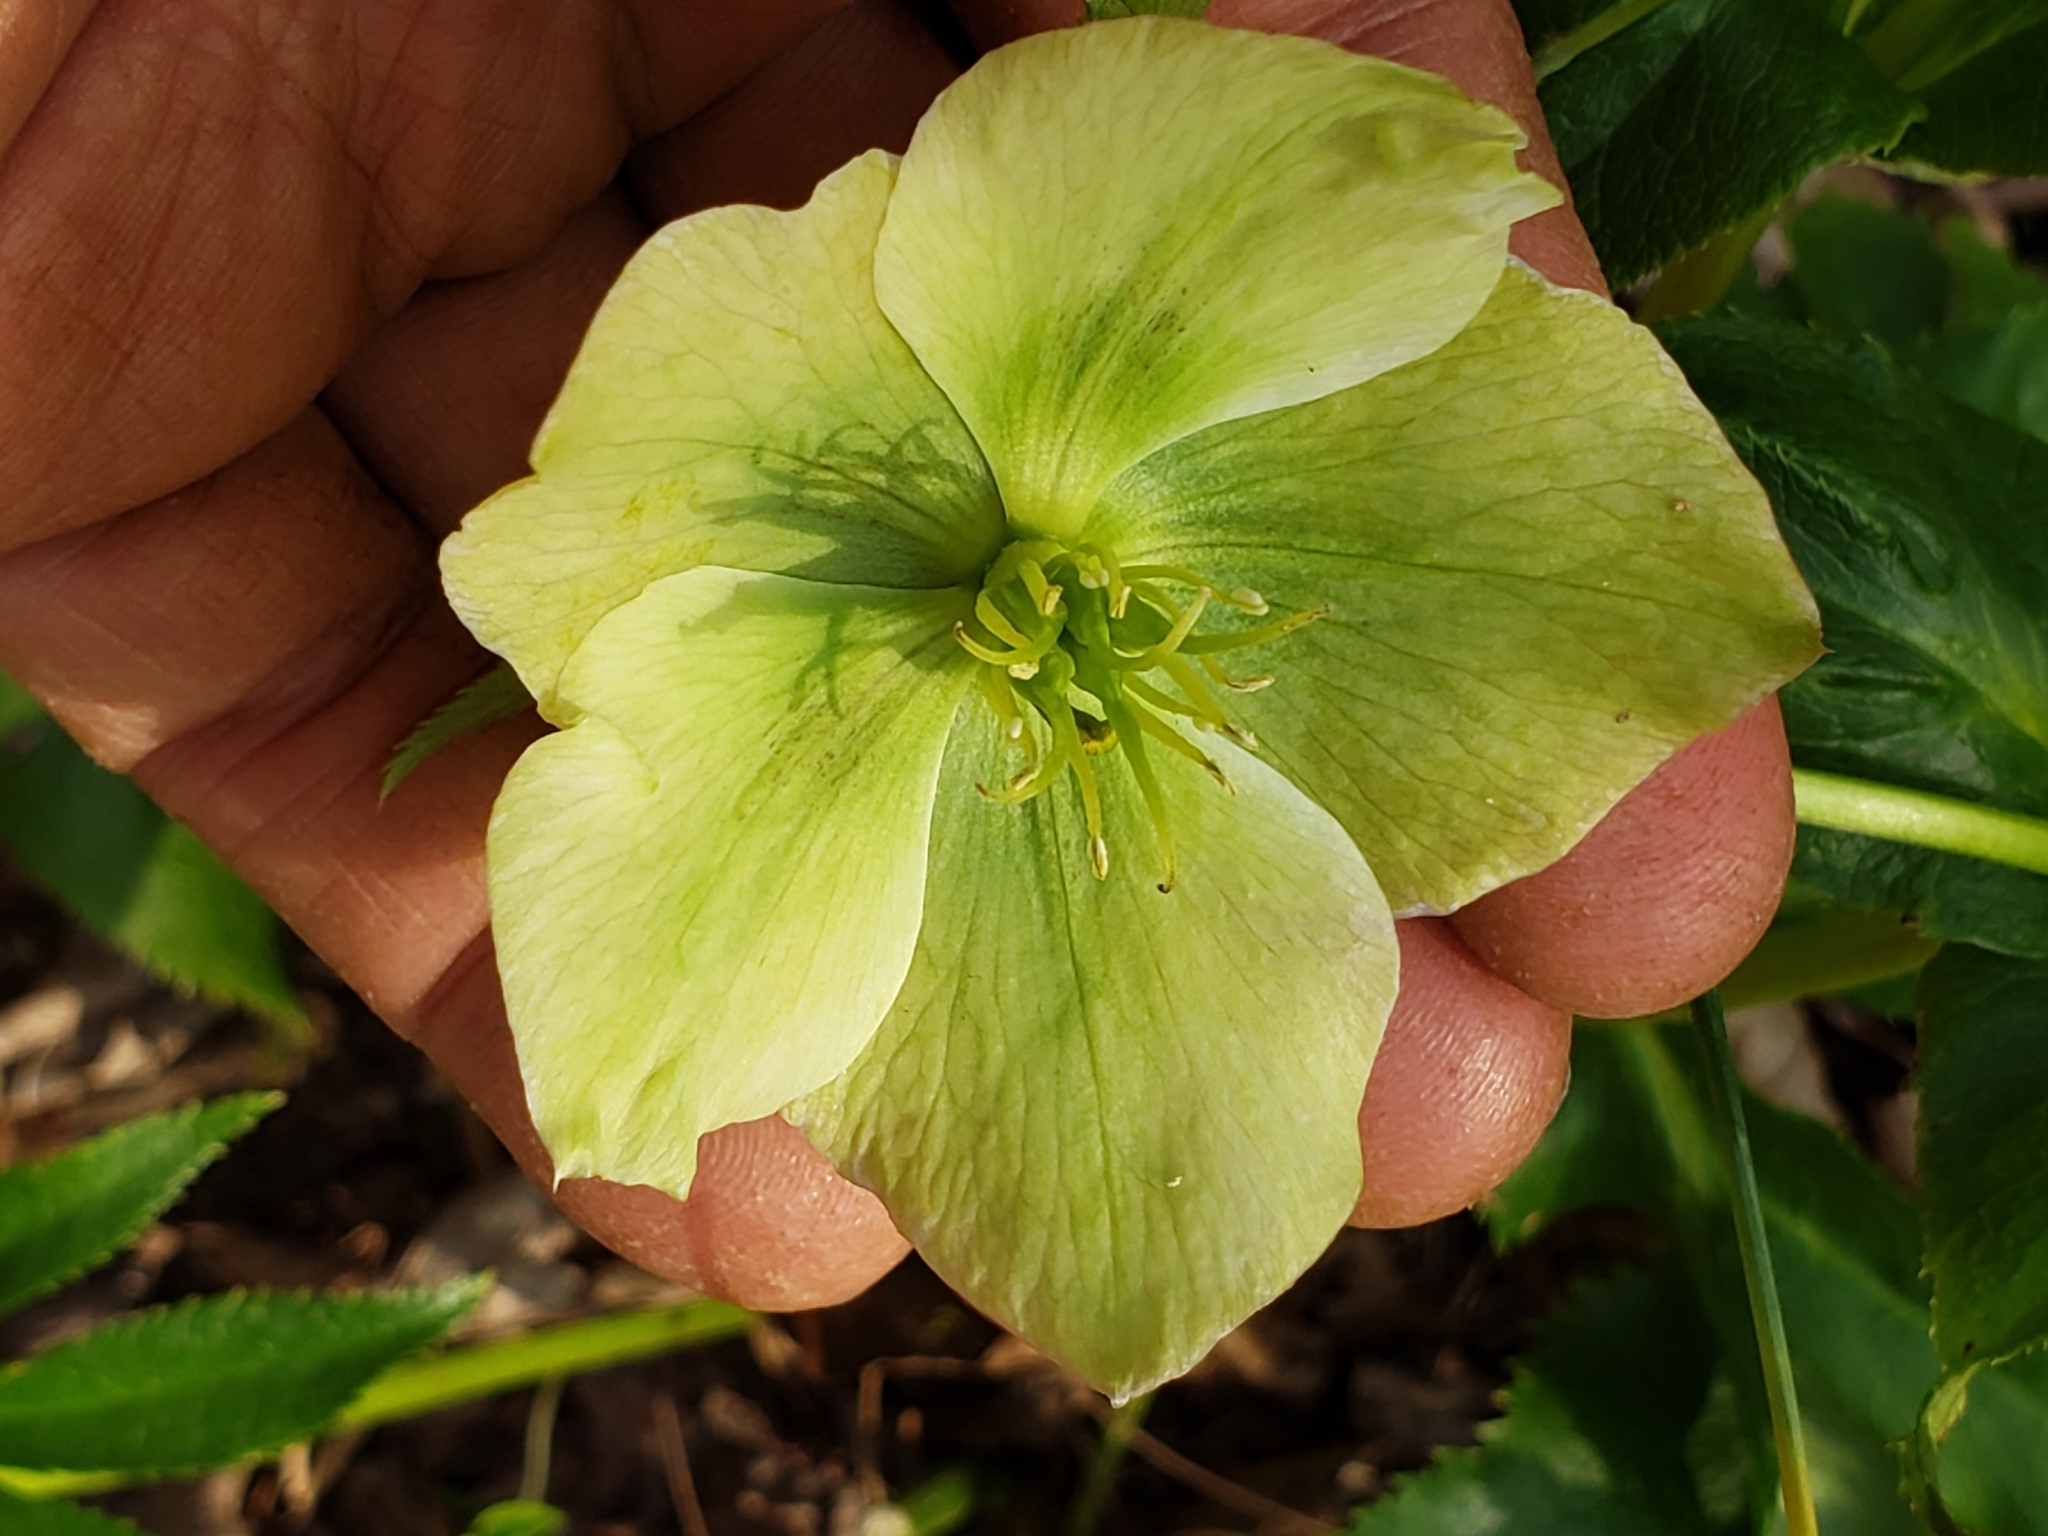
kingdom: Plantae
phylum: Tracheophyta
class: Magnoliopsida
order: Ranunculales
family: Ranunculaceae
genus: Helleborus
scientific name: Helleborus orientalis
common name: Lenten-rose
